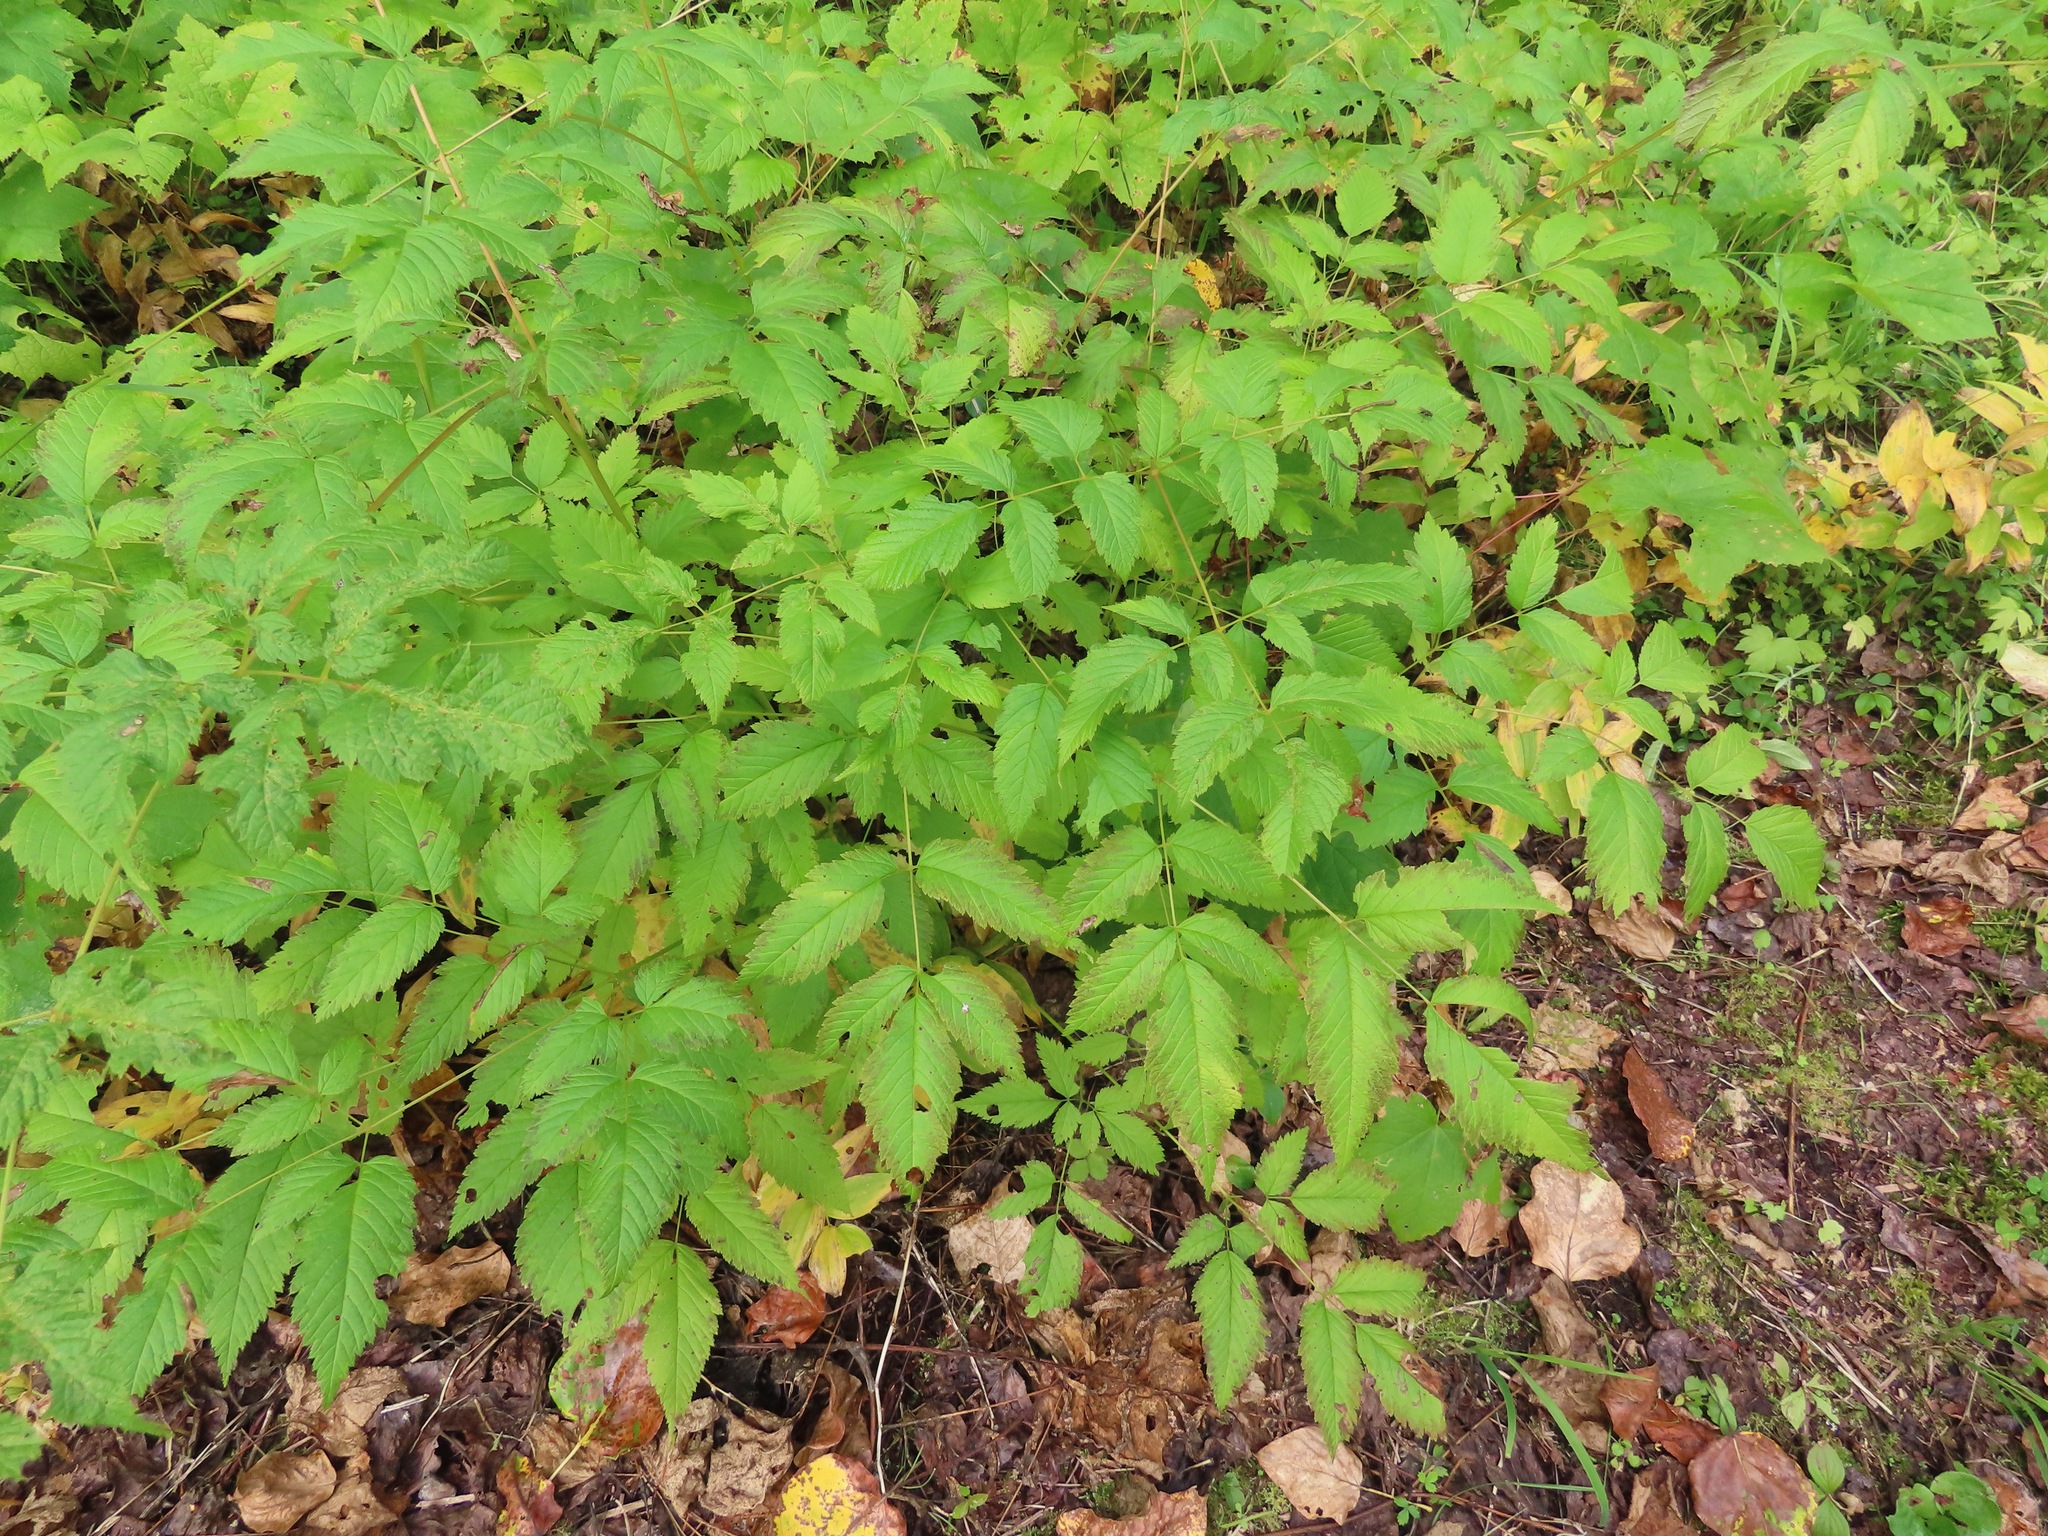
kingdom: Plantae
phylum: Tracheophyta
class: Magnoliopsida
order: Rosales
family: Rosaceae
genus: Aruncus
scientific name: Aruncus dioicus
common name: Buck's-beard
